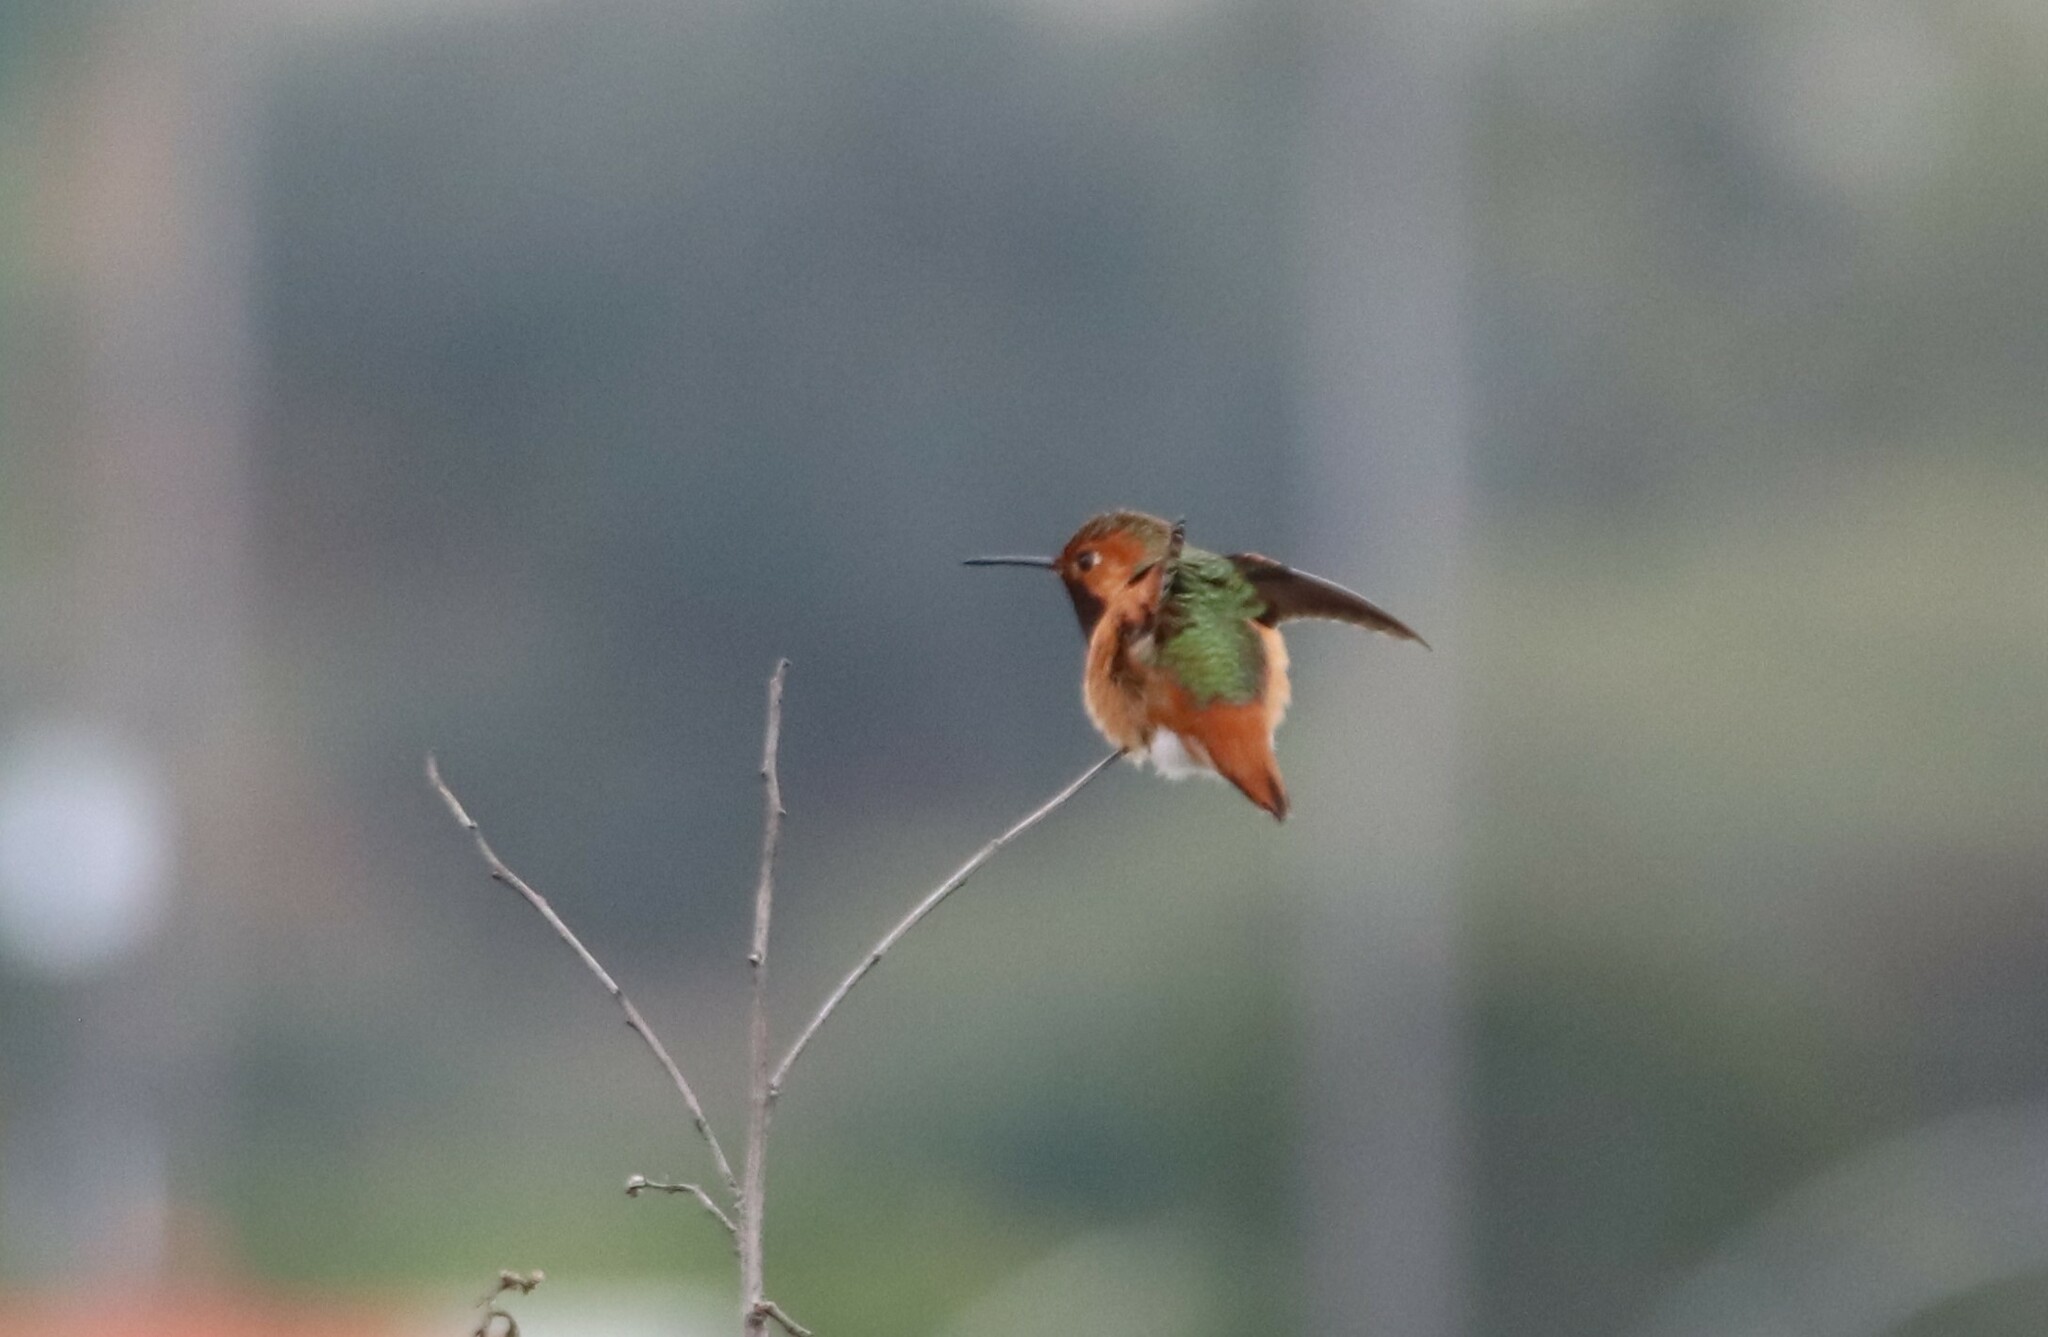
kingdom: Animalia
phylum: Chordata
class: Aves
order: Apodiformes
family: Trochilidae
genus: Selasphorus
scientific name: Selasphorus sasin
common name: Allen's hummingbird
